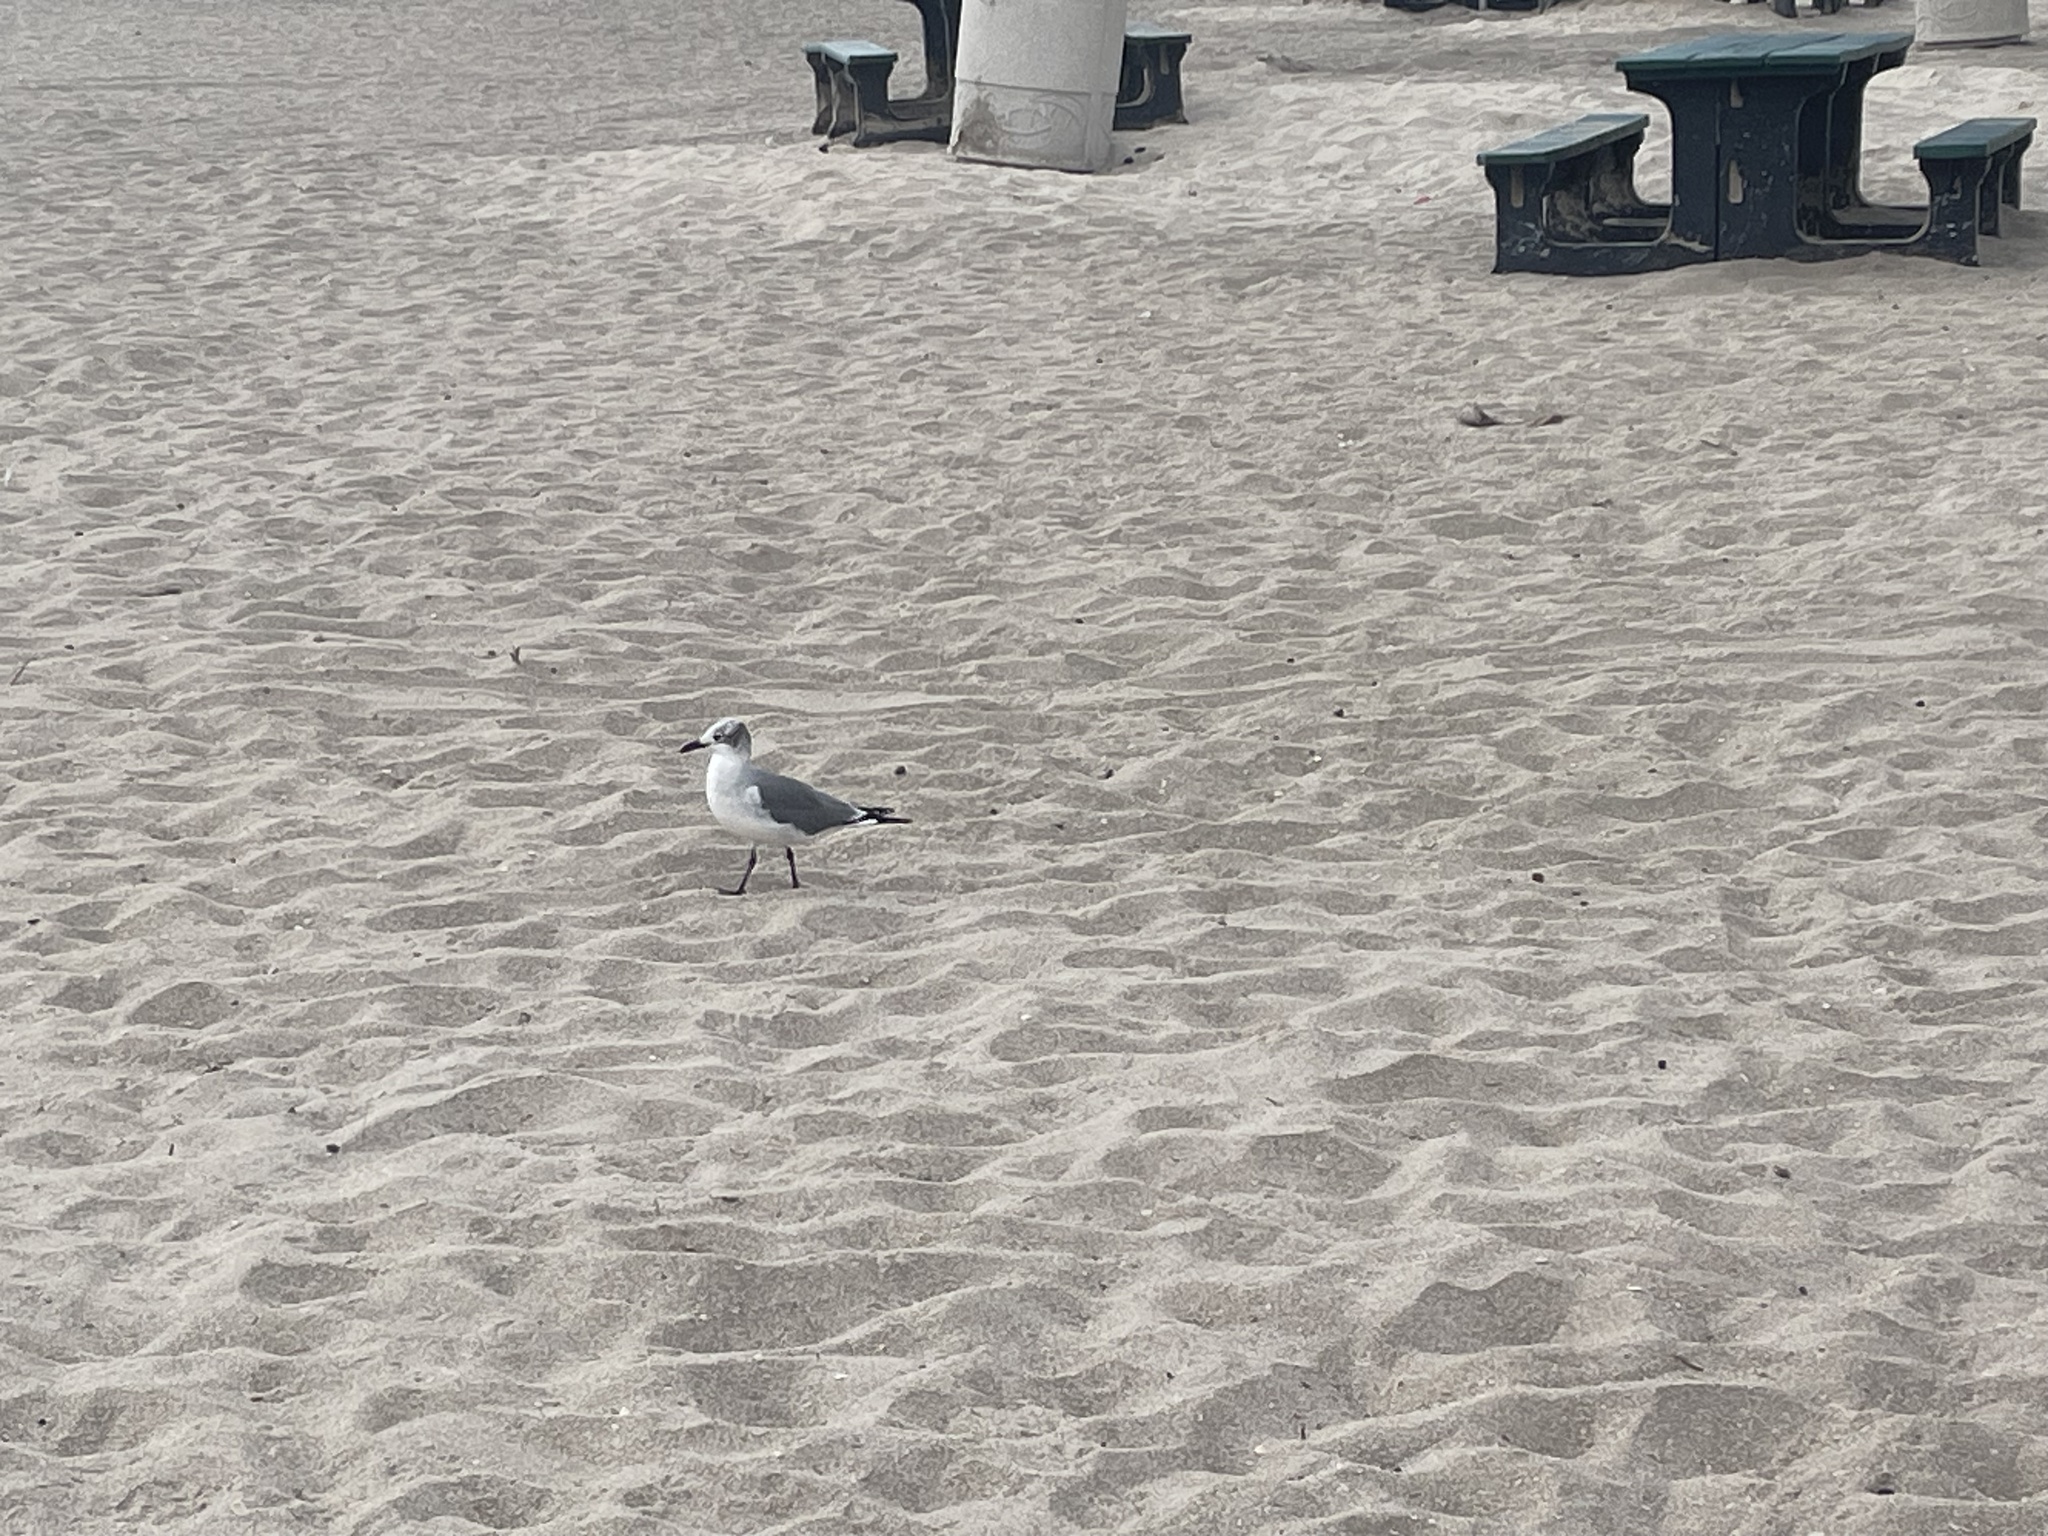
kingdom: Animalia
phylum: Chordata
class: Aves
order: Charadriiformes
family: Laridae
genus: Leucophaeus
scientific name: Leucophaeus atricilla
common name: Laughing gull
